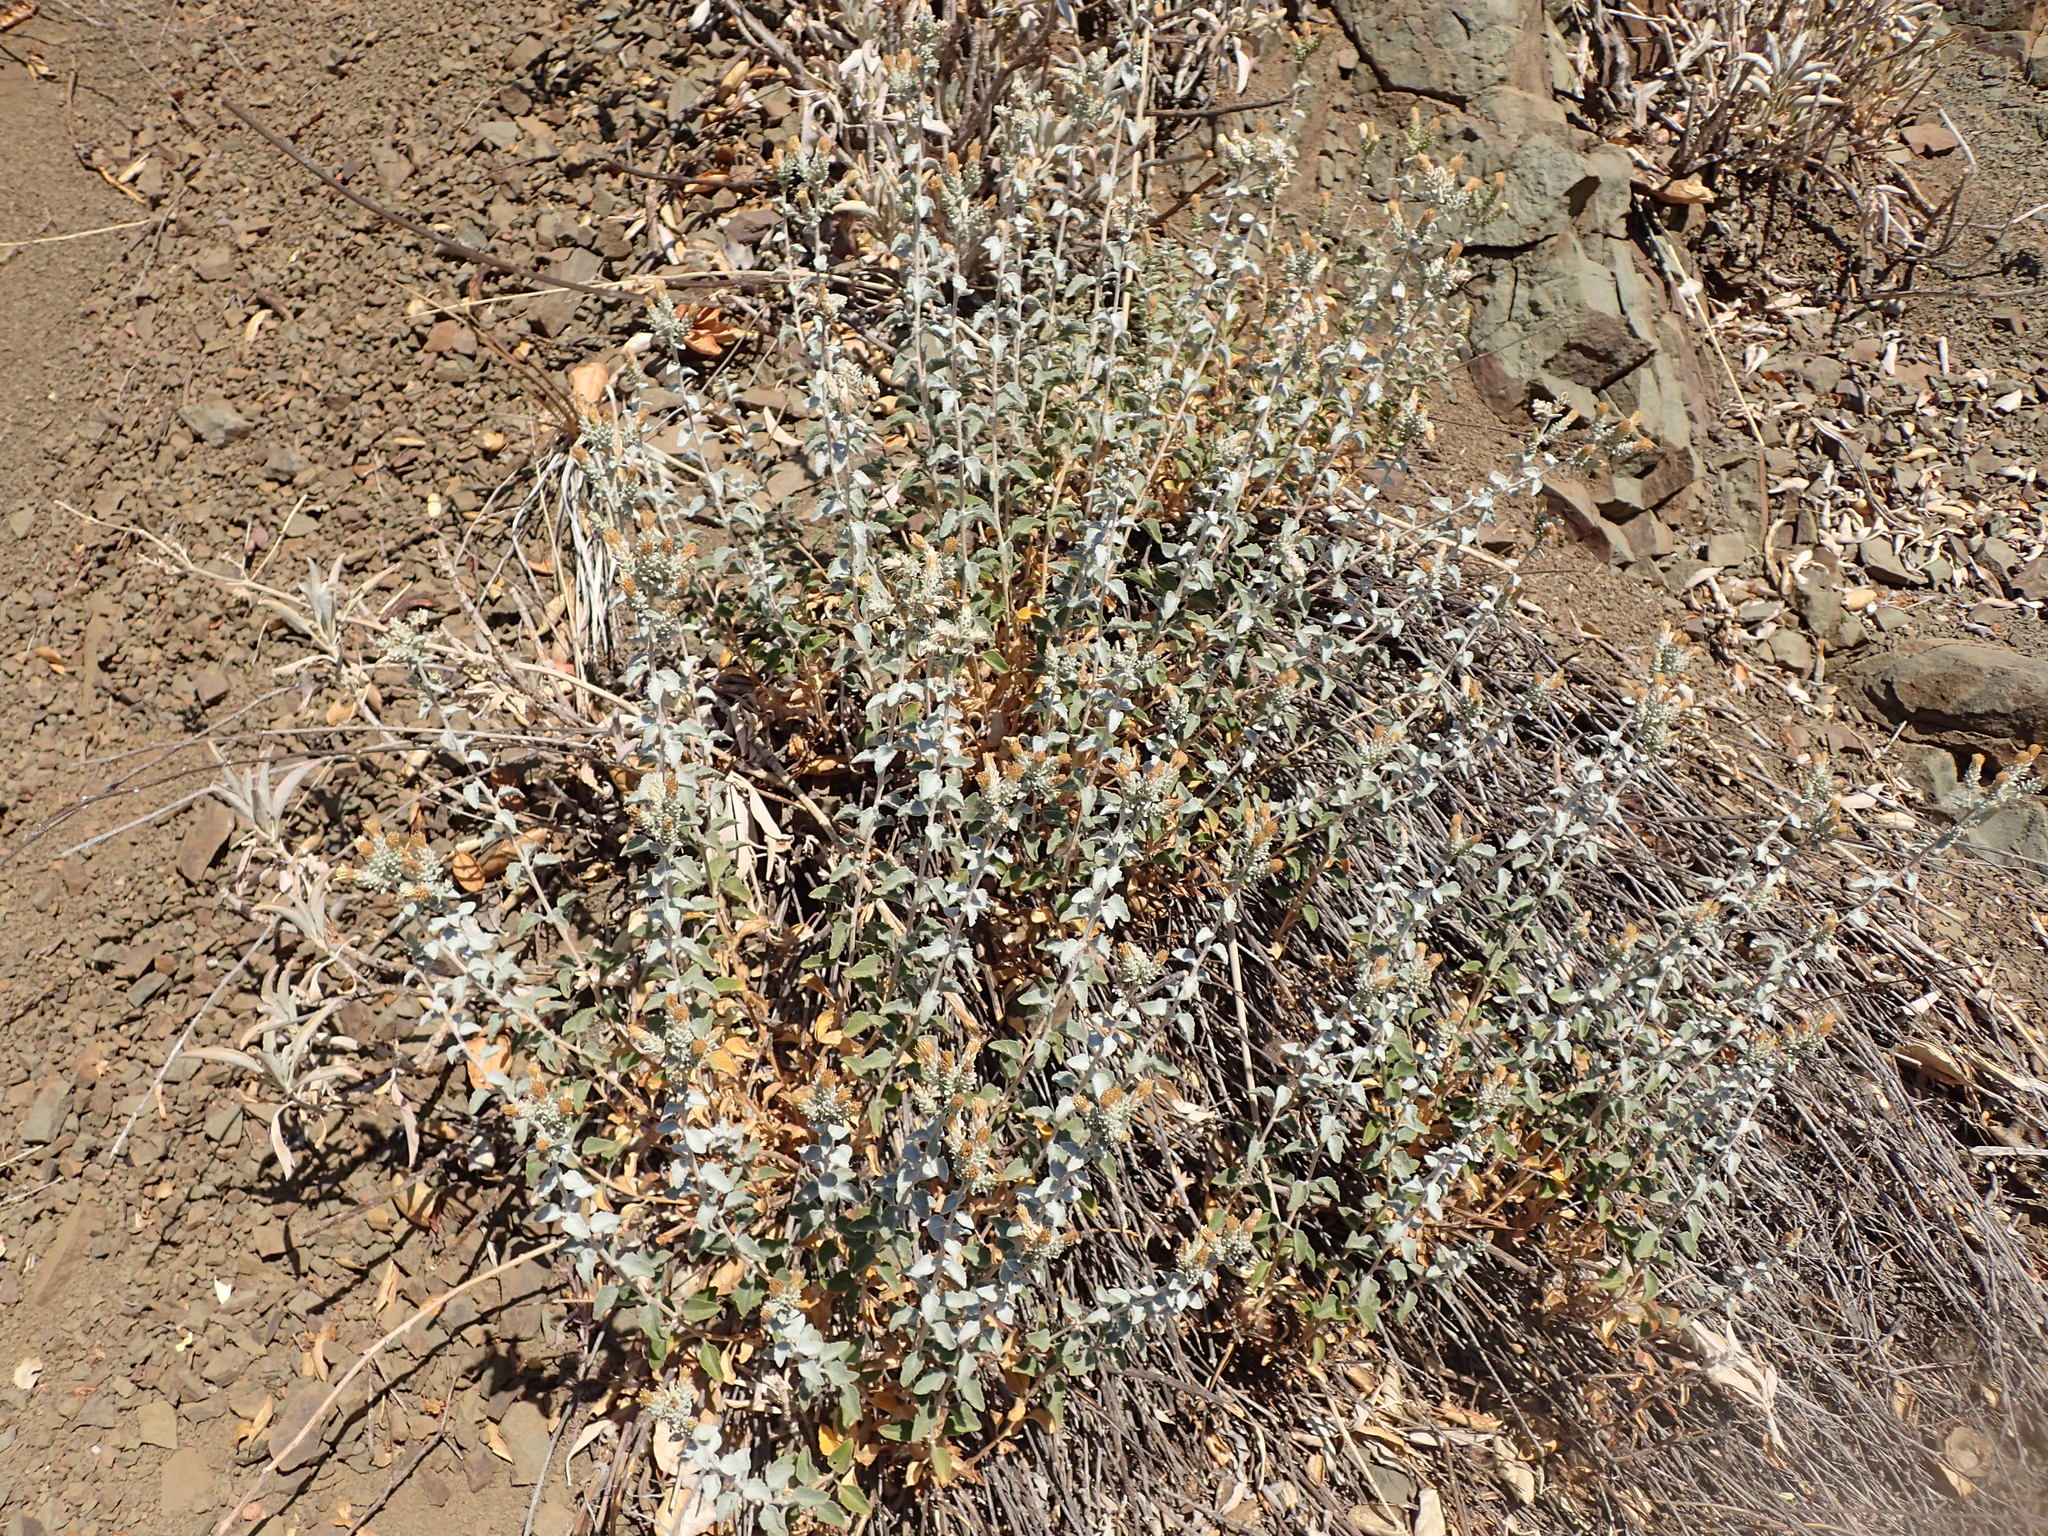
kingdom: Plantae
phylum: Tracheophyta
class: Magnoliopsida
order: Asterales
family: Asteraceae
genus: Brickellia
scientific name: Brickellia nevinii
